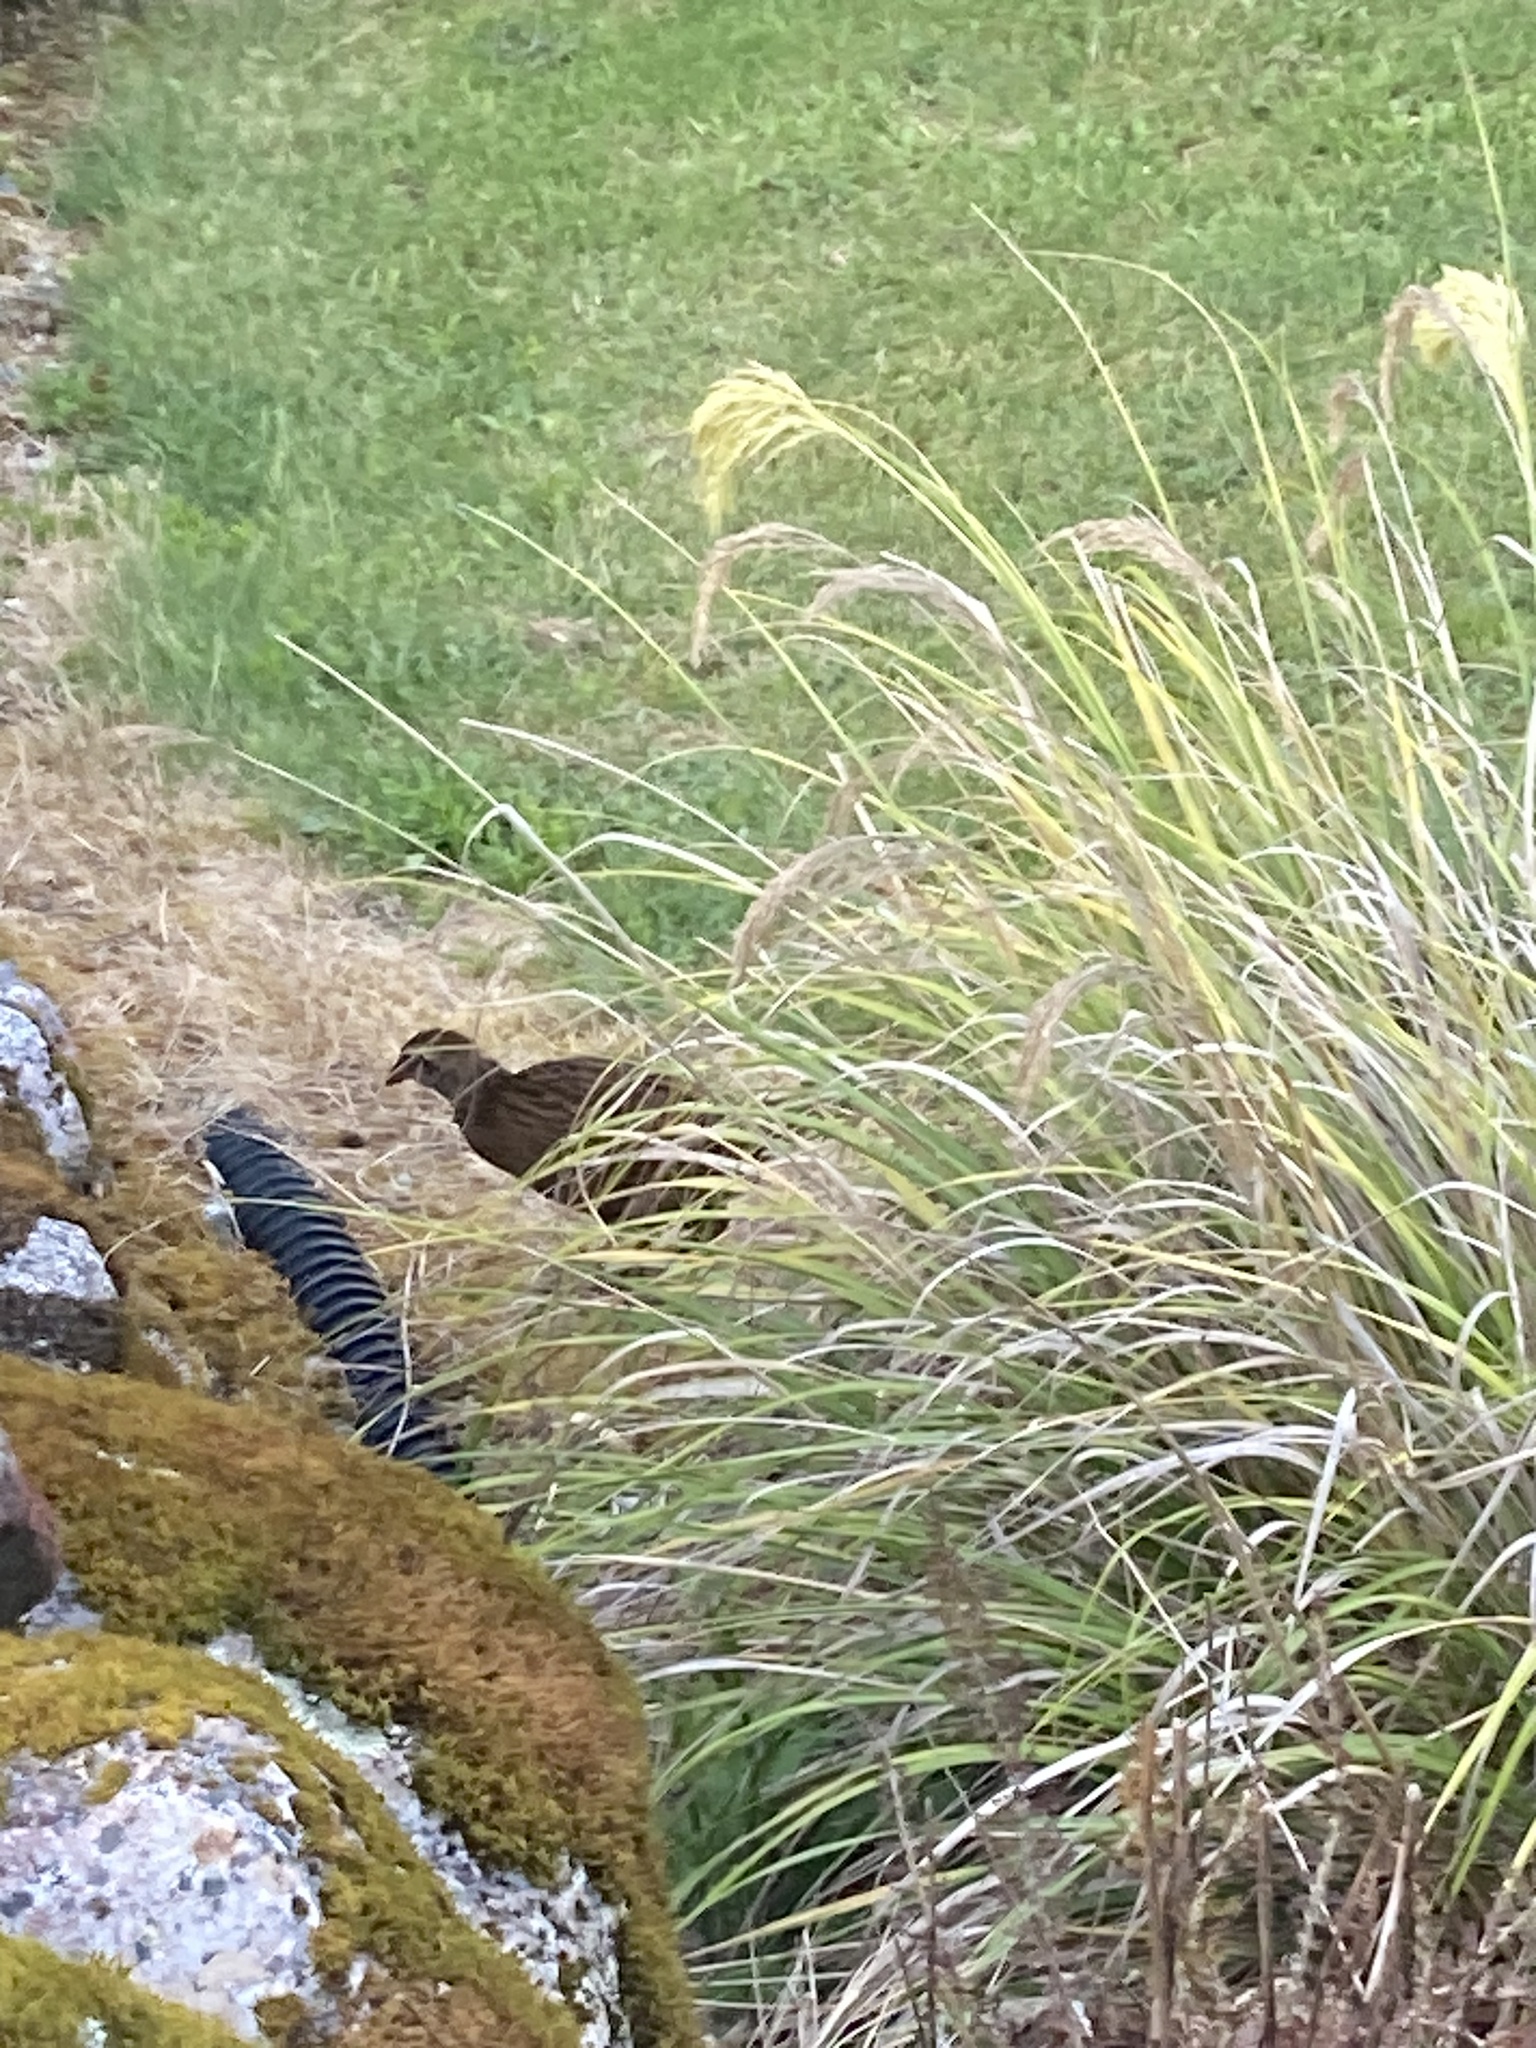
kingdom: Animalia
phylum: Chordata
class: Aves
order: Gruiformes
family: Rallidae
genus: Gallirallus
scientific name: Gallirallus australis
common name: Weka
